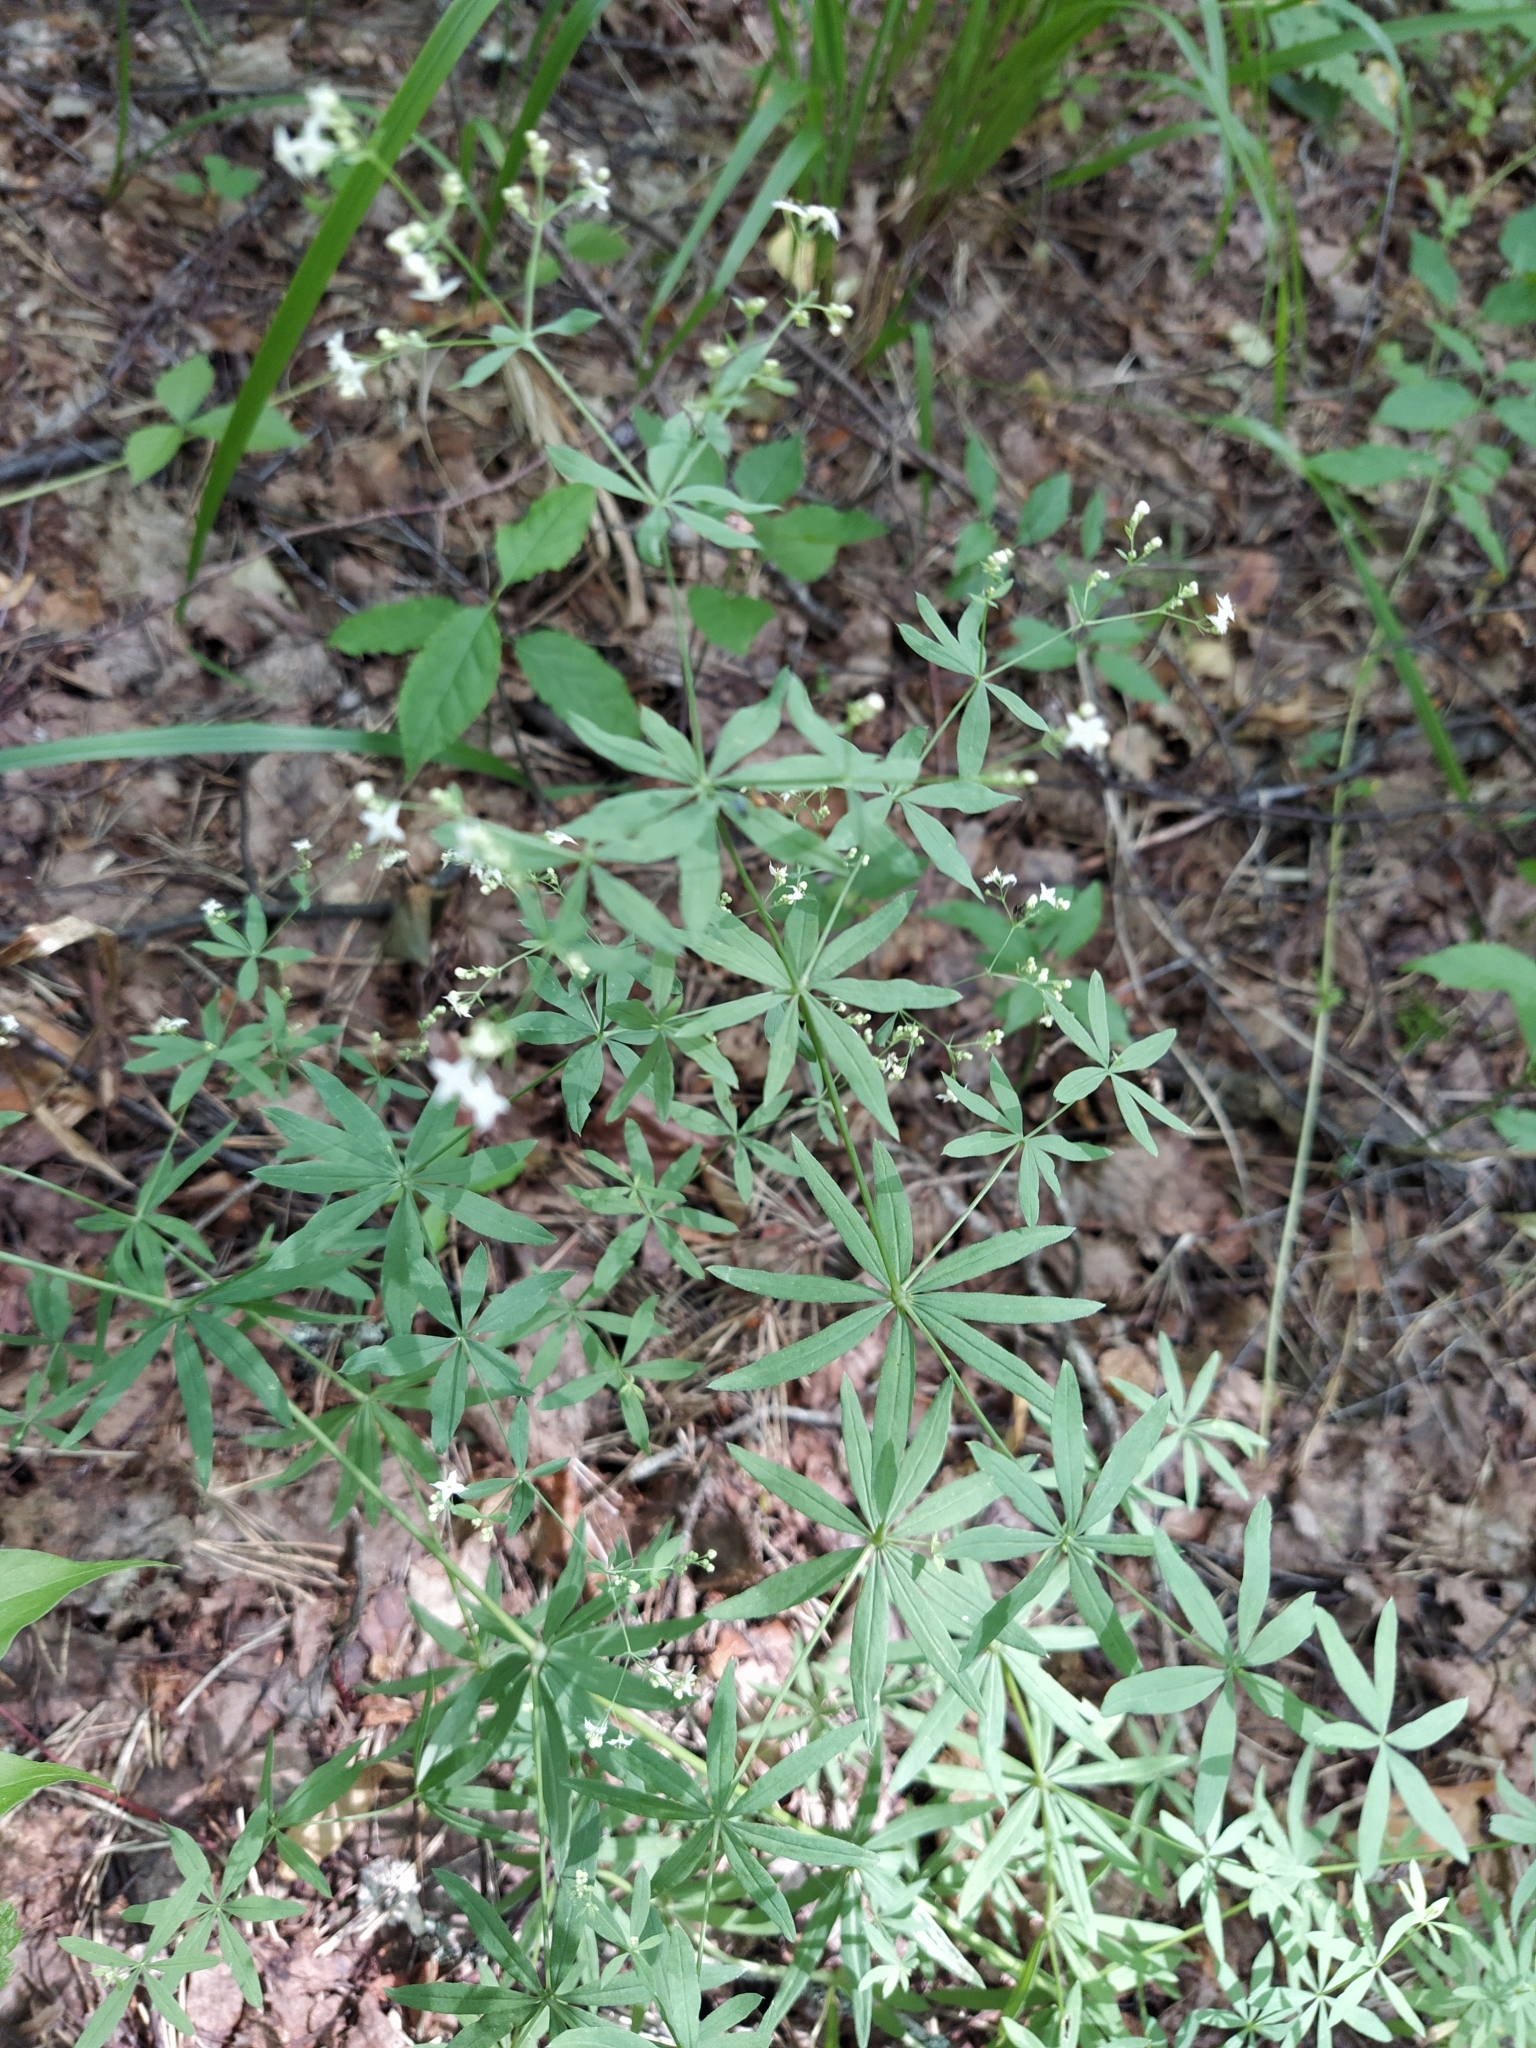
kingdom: Plantae
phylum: Tracheophyta
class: Magnoliopsida
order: Gentianales
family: Rubiaceae
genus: Galium
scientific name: Galium intermedium
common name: Bedstraw
